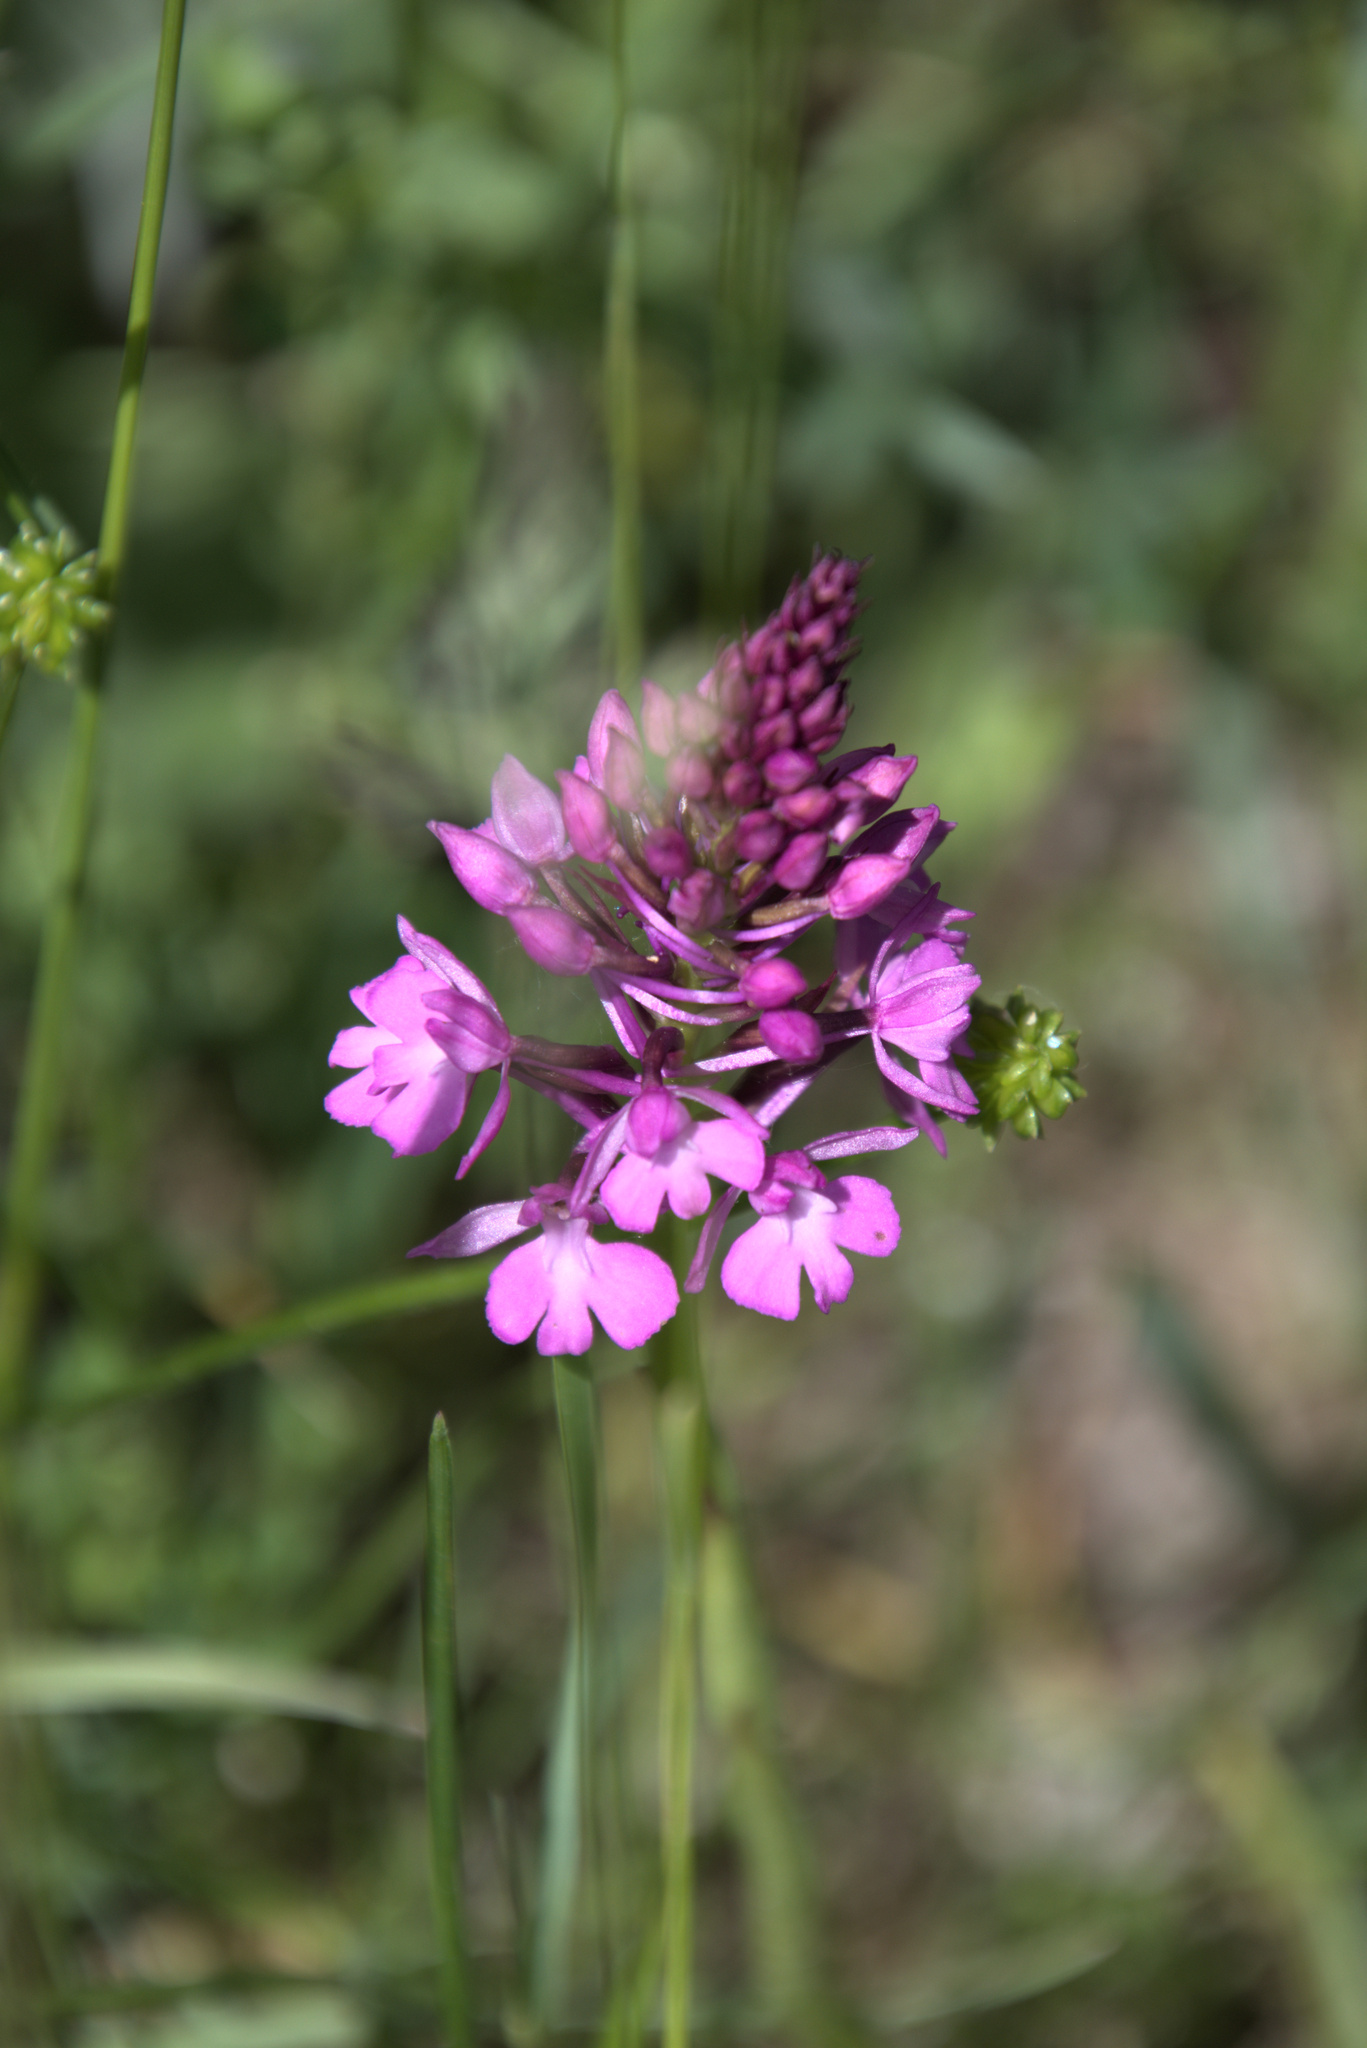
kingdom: Plantae
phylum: Tracheophyta
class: Liliopsida
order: Asparagales
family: Orchidaceae
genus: Anacamptis
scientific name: Anacamptis pyramidalis
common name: Pyramidal orchid
